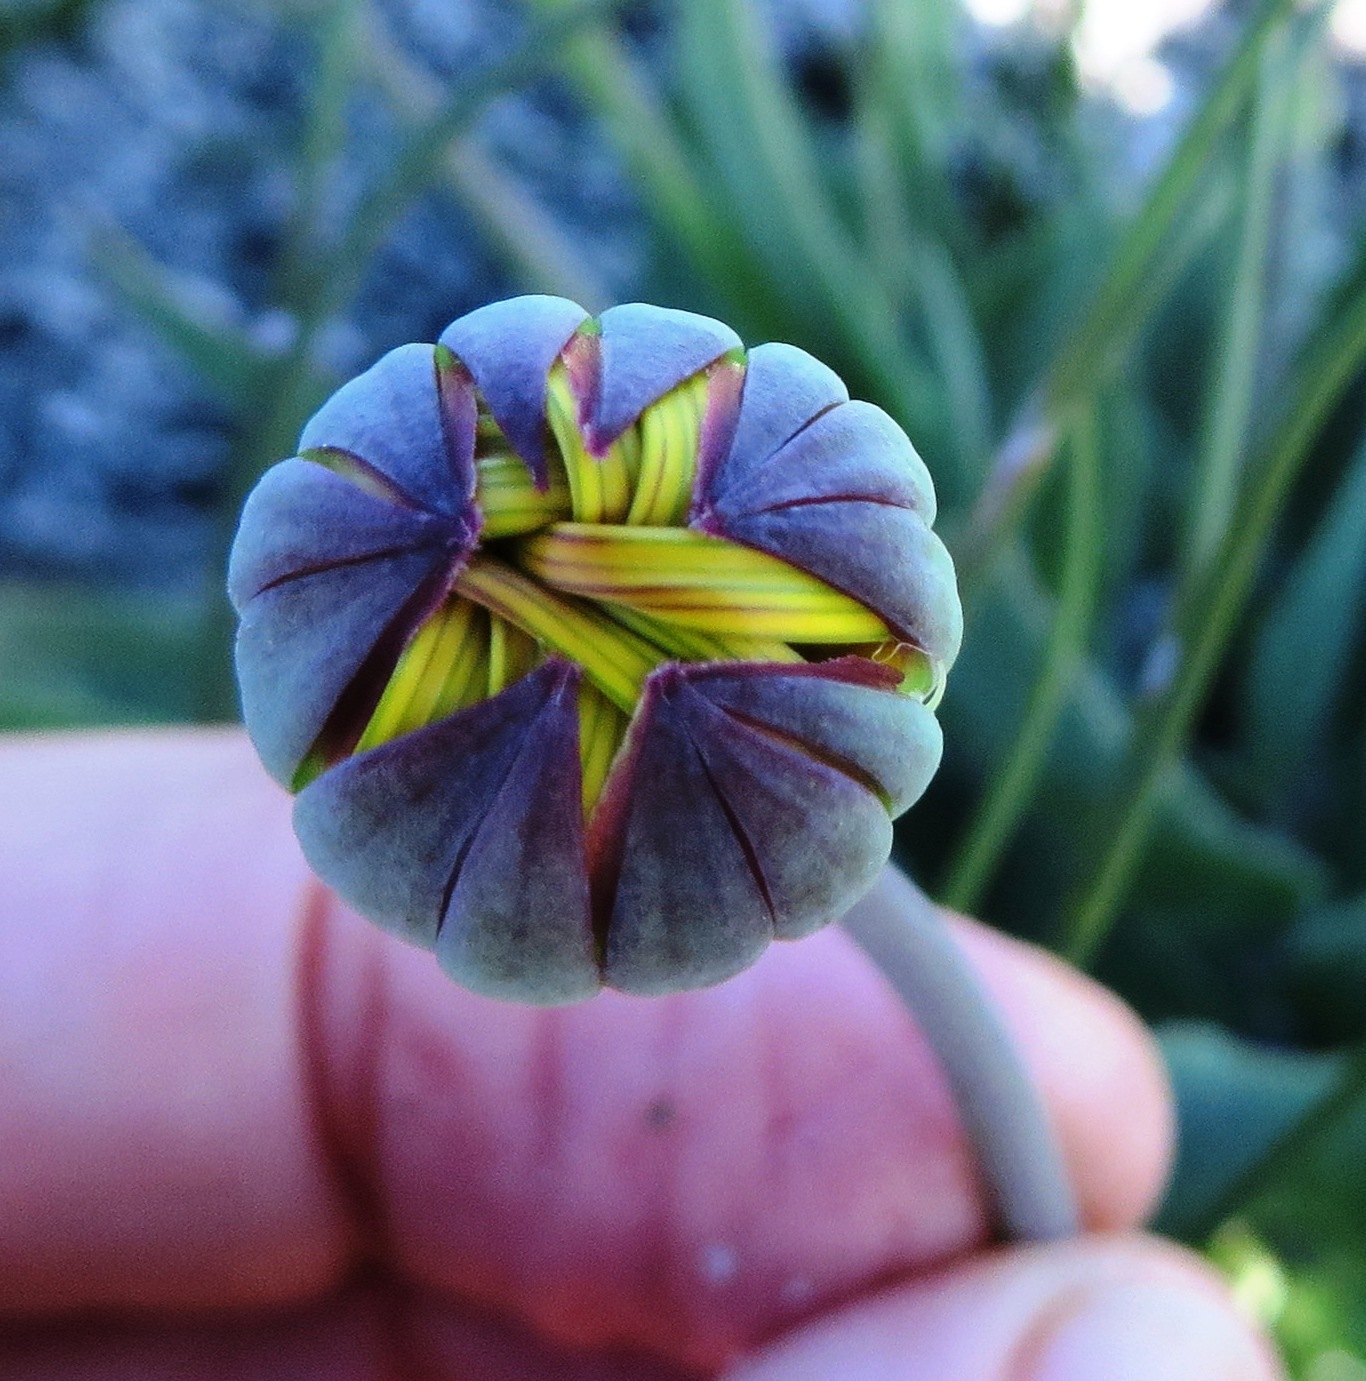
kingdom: Plantae
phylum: Tracheophyta
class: Magnoliopsida
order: Asterales
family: Asteraceae
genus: Othonna
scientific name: Othonna bulbosa
